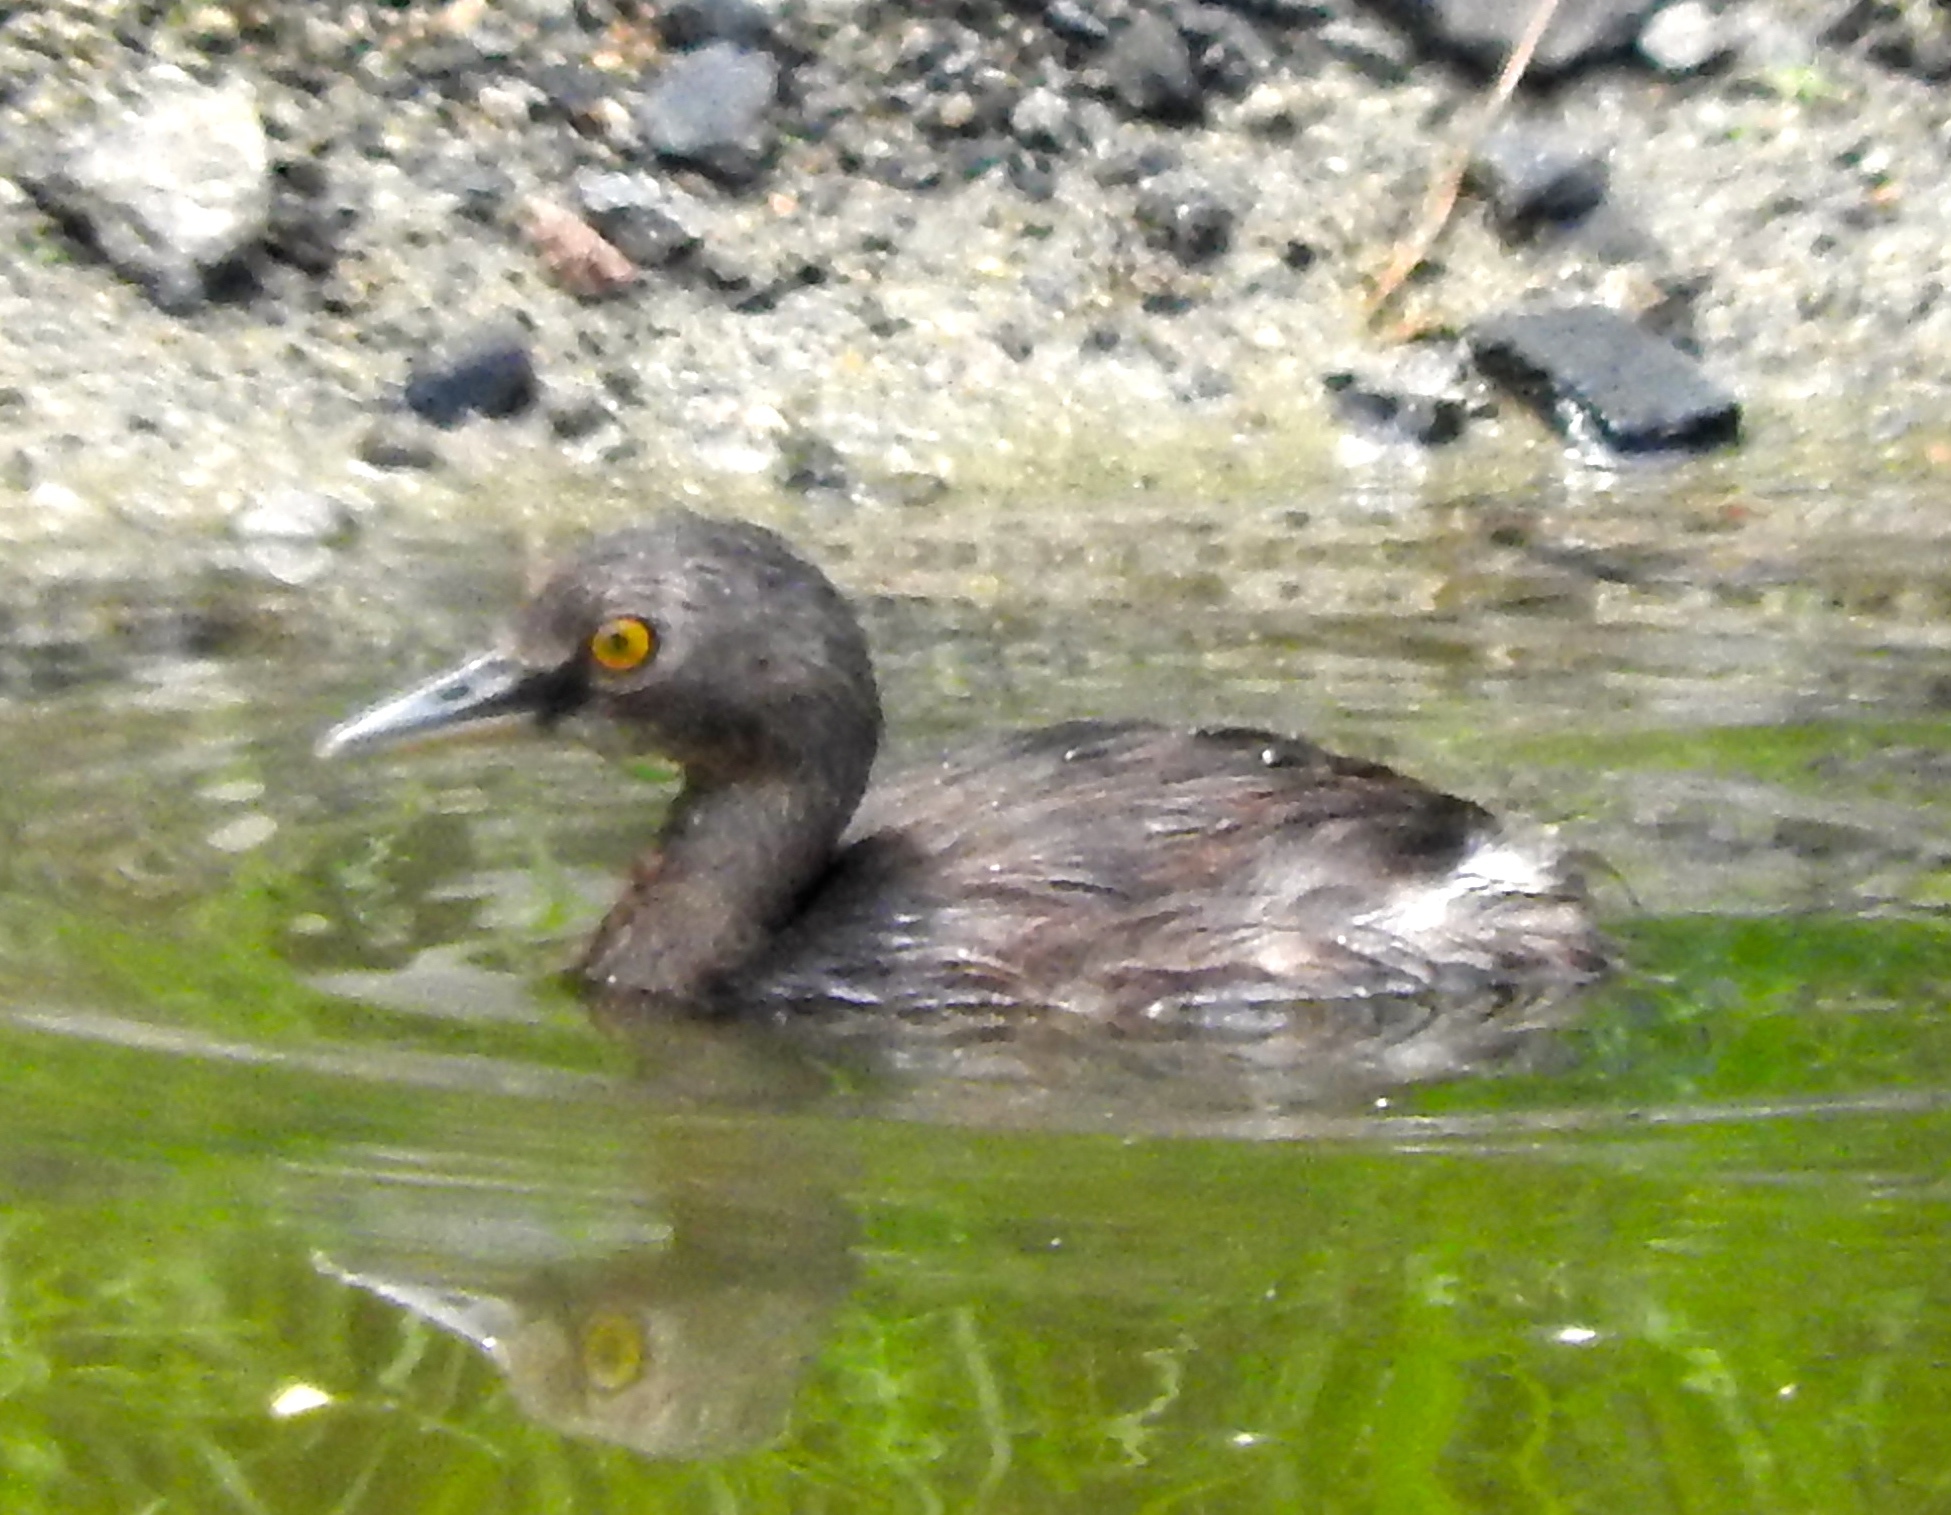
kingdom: Animalia
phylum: Chordata
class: Aves
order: Podicipediformes
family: Podicipedidae
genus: Tachybaptus
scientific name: Tachybaptus dominicus
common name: Least grebe
